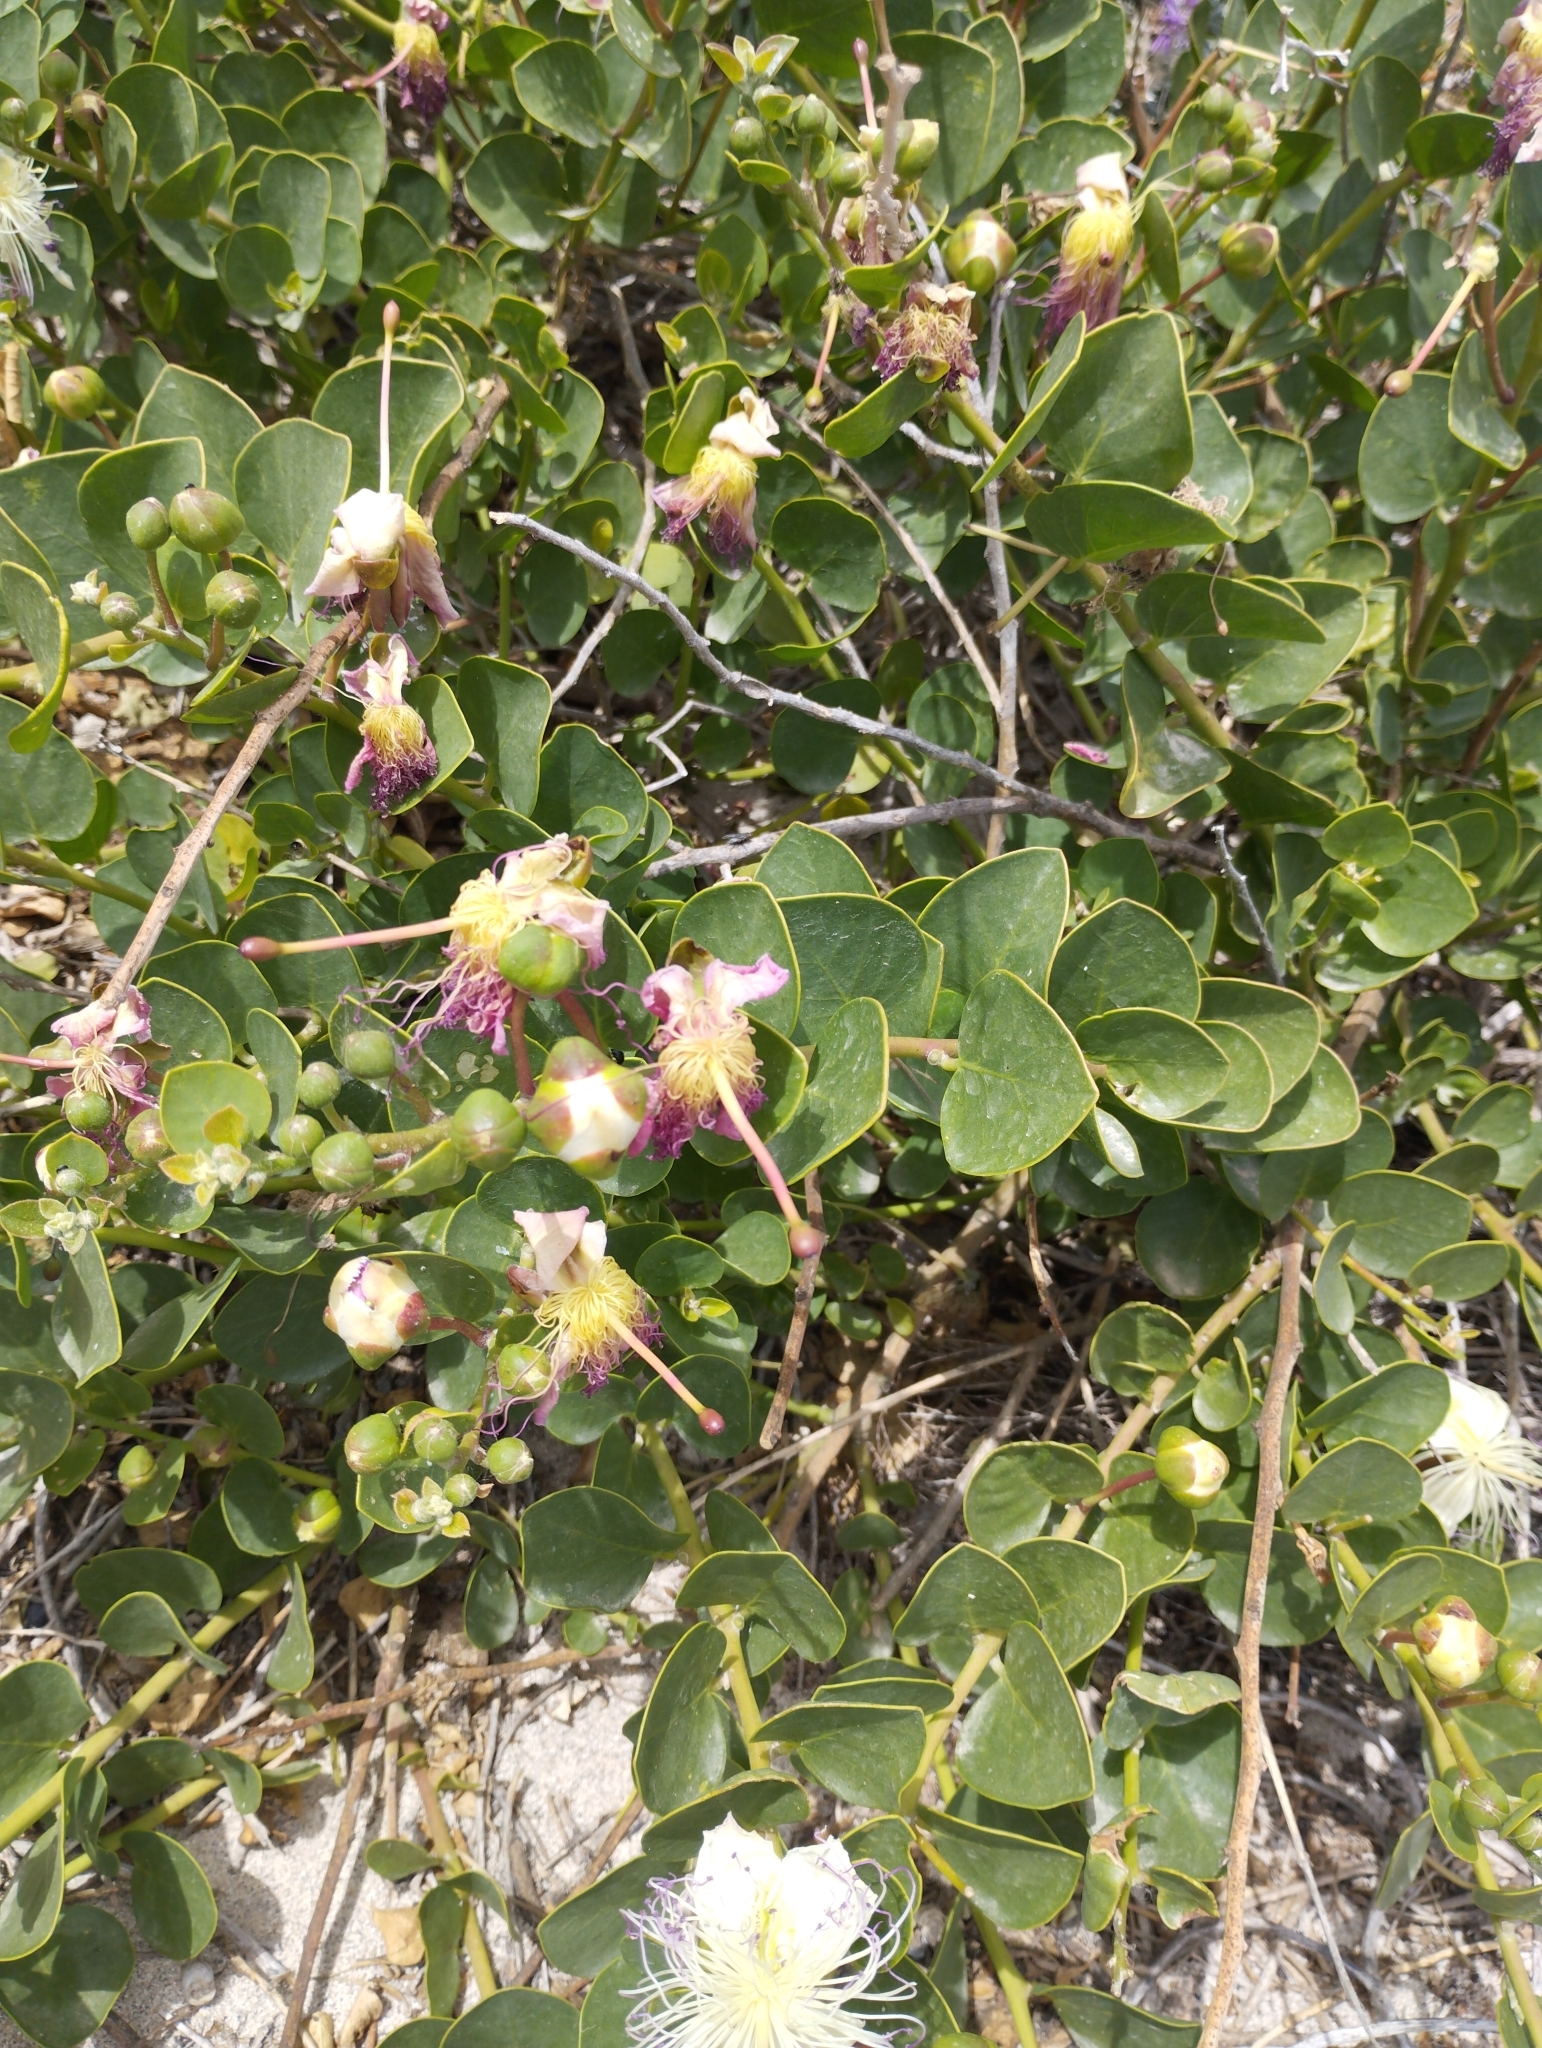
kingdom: Plantae
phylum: Tracheophyta
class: Magnoliopsida
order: Brassicales
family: Capparaceae
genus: Capparis
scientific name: Capparis orientalis
